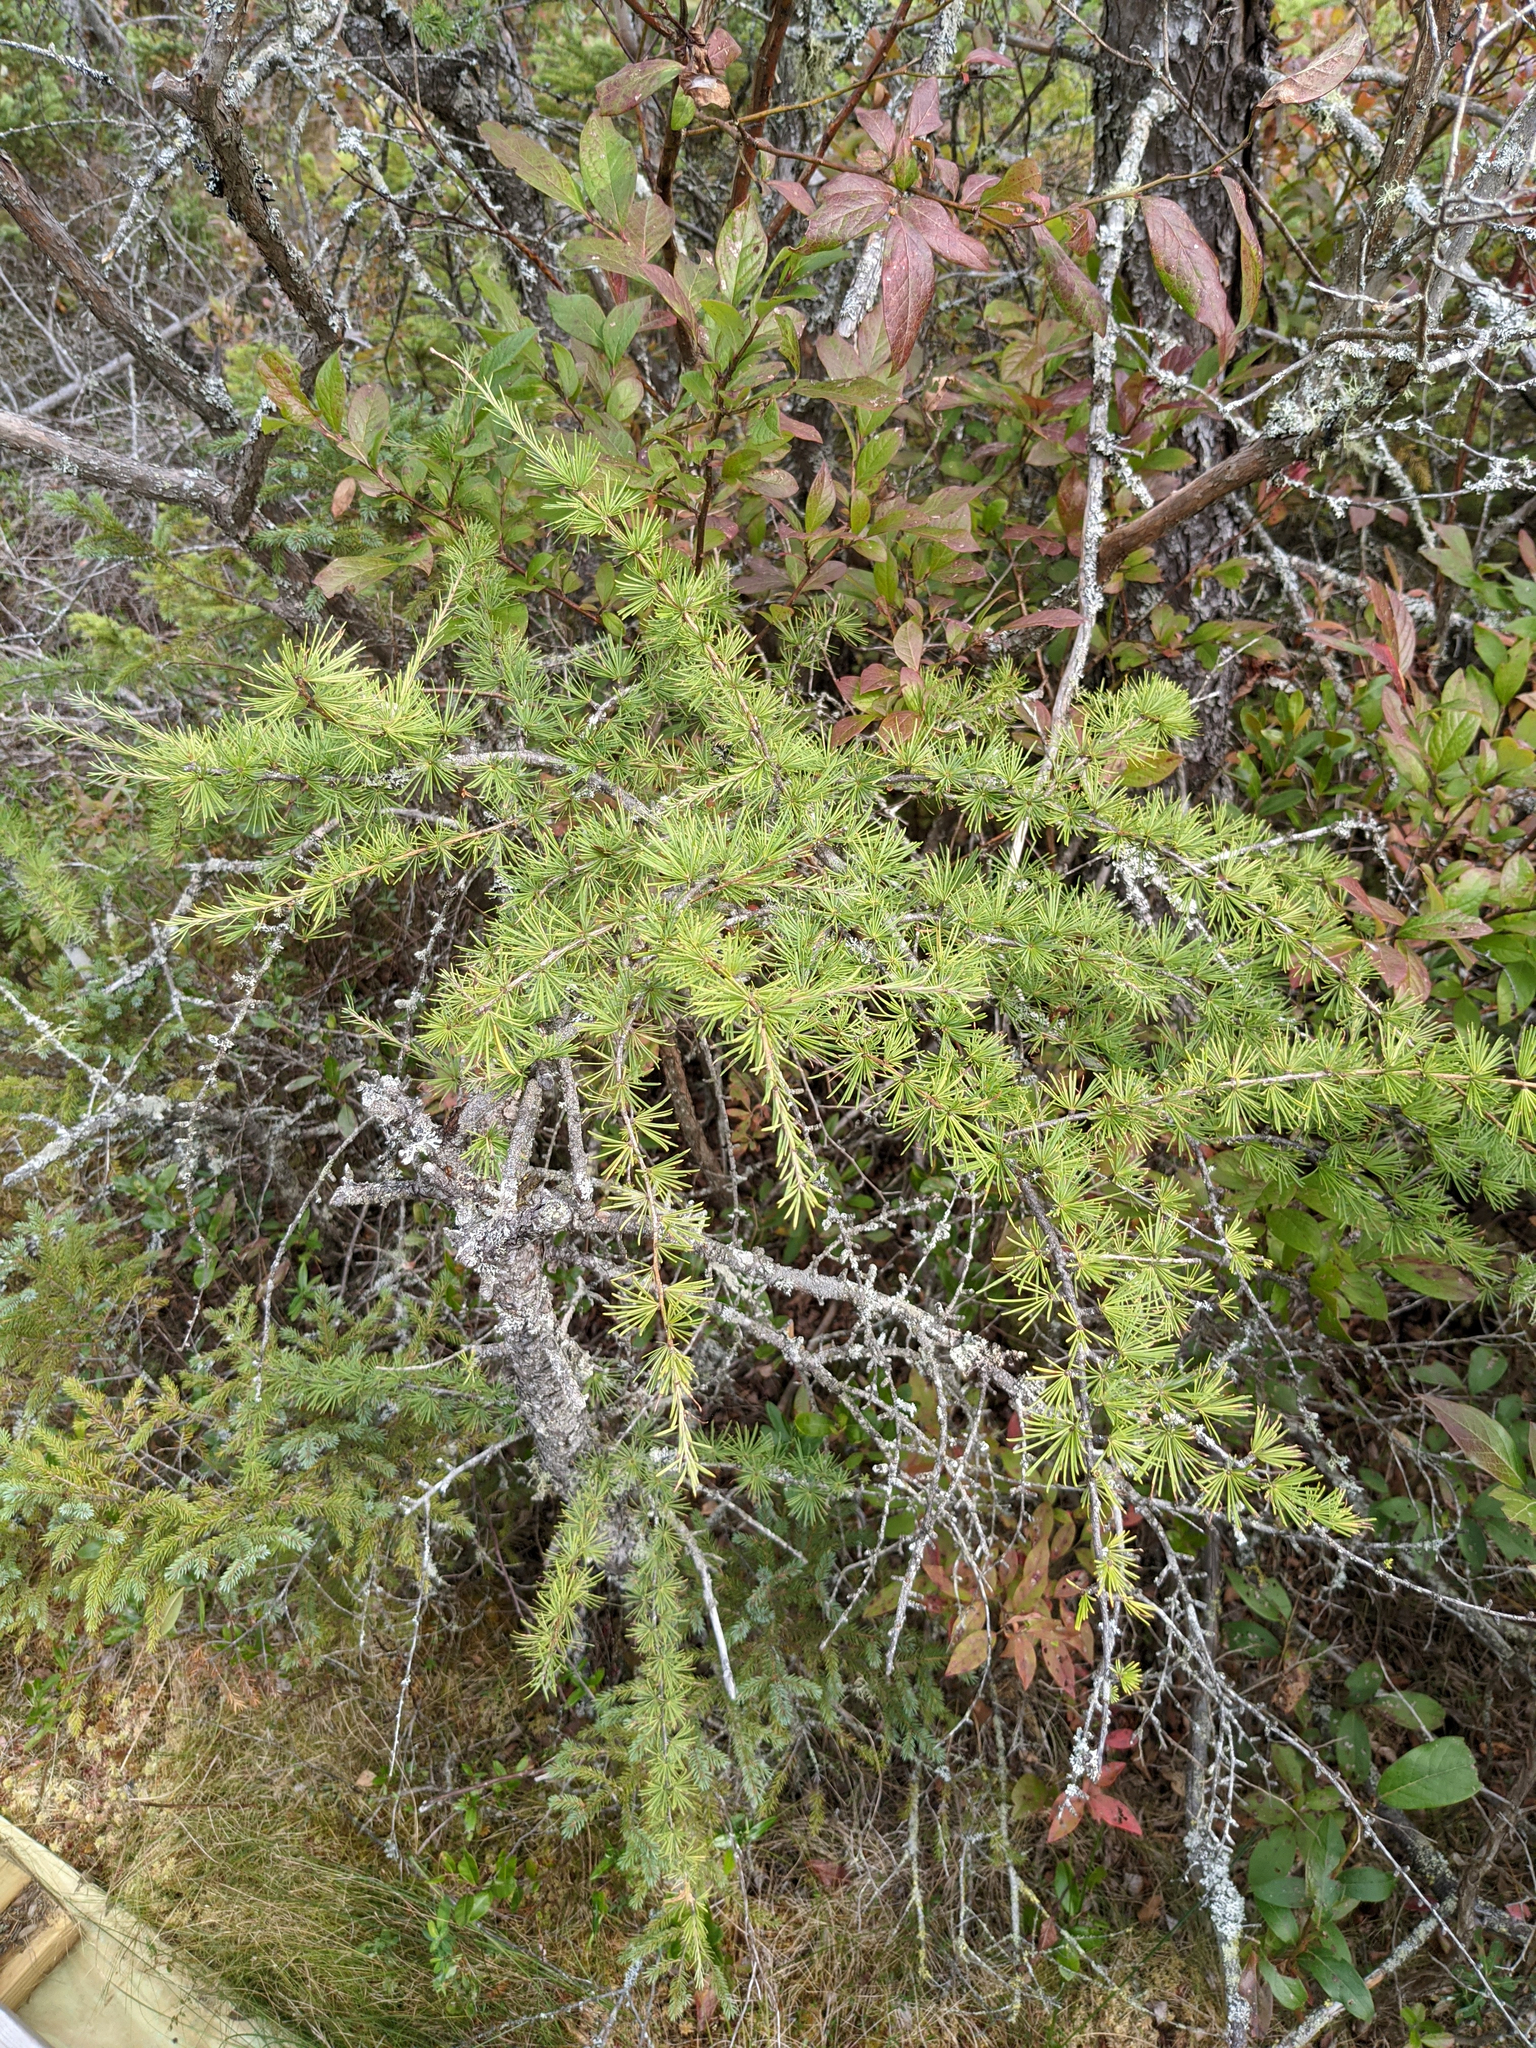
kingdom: Plantae
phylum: Tracheophyta
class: Pinopsida
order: Pinales
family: Pinaceae
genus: Larix
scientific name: Larix laricina
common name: American larch
